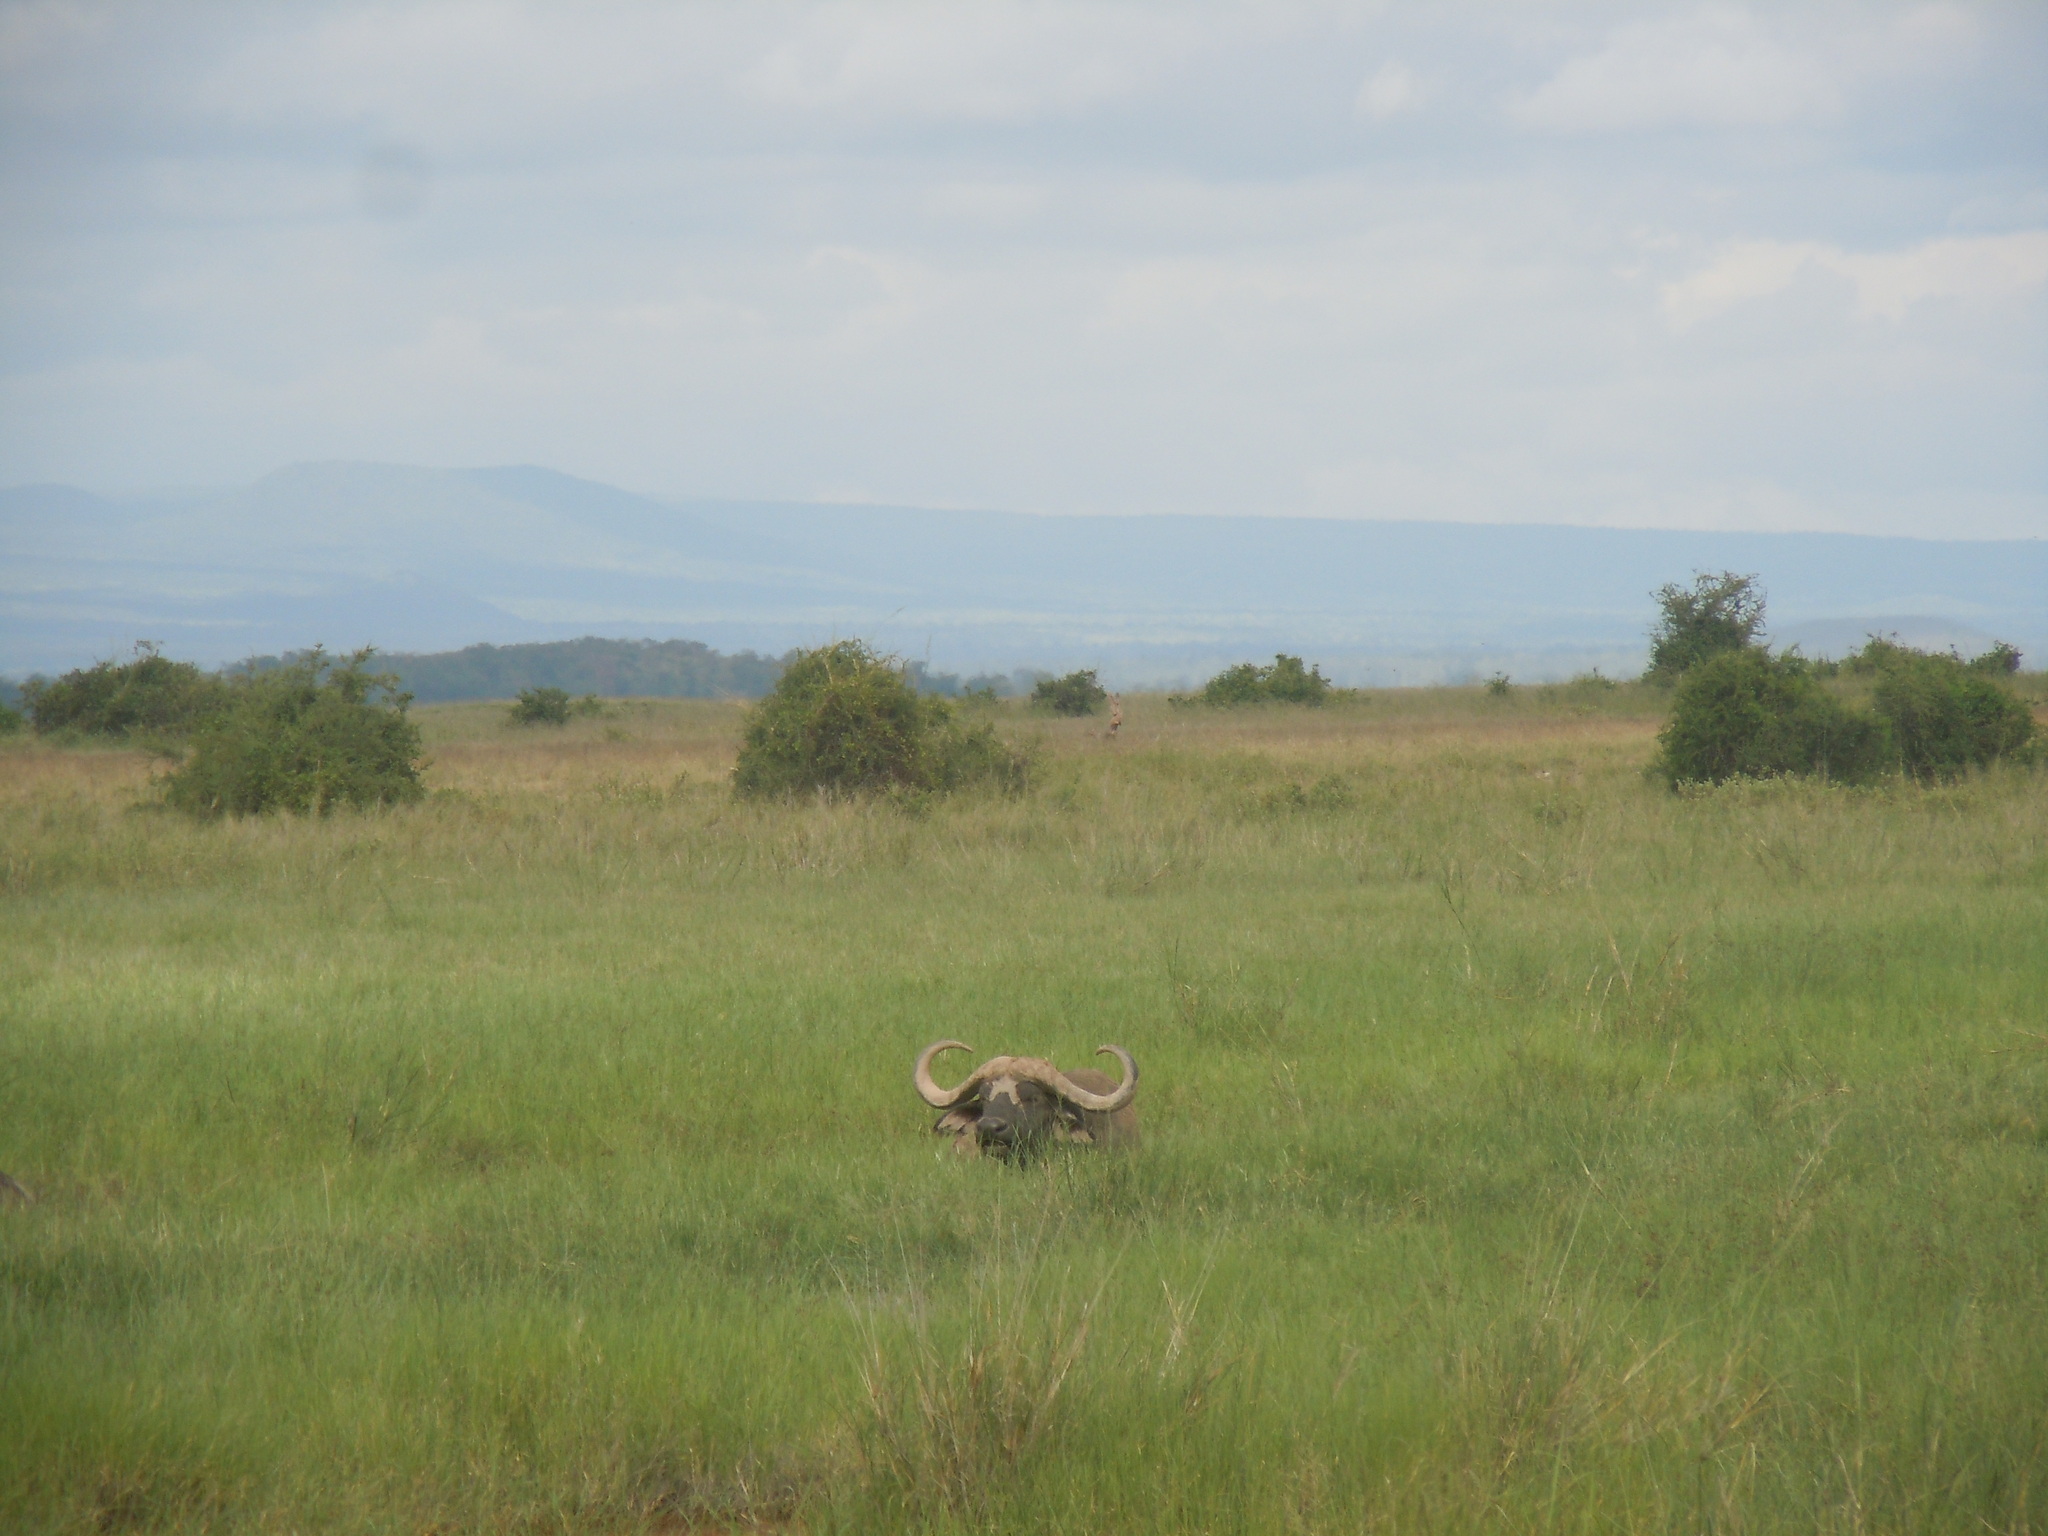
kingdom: Animalia
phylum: Chordata
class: Mammalia
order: Artiodactyla
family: Bovidae
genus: Syncerus
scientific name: Syncerus caffer
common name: African buffalo
